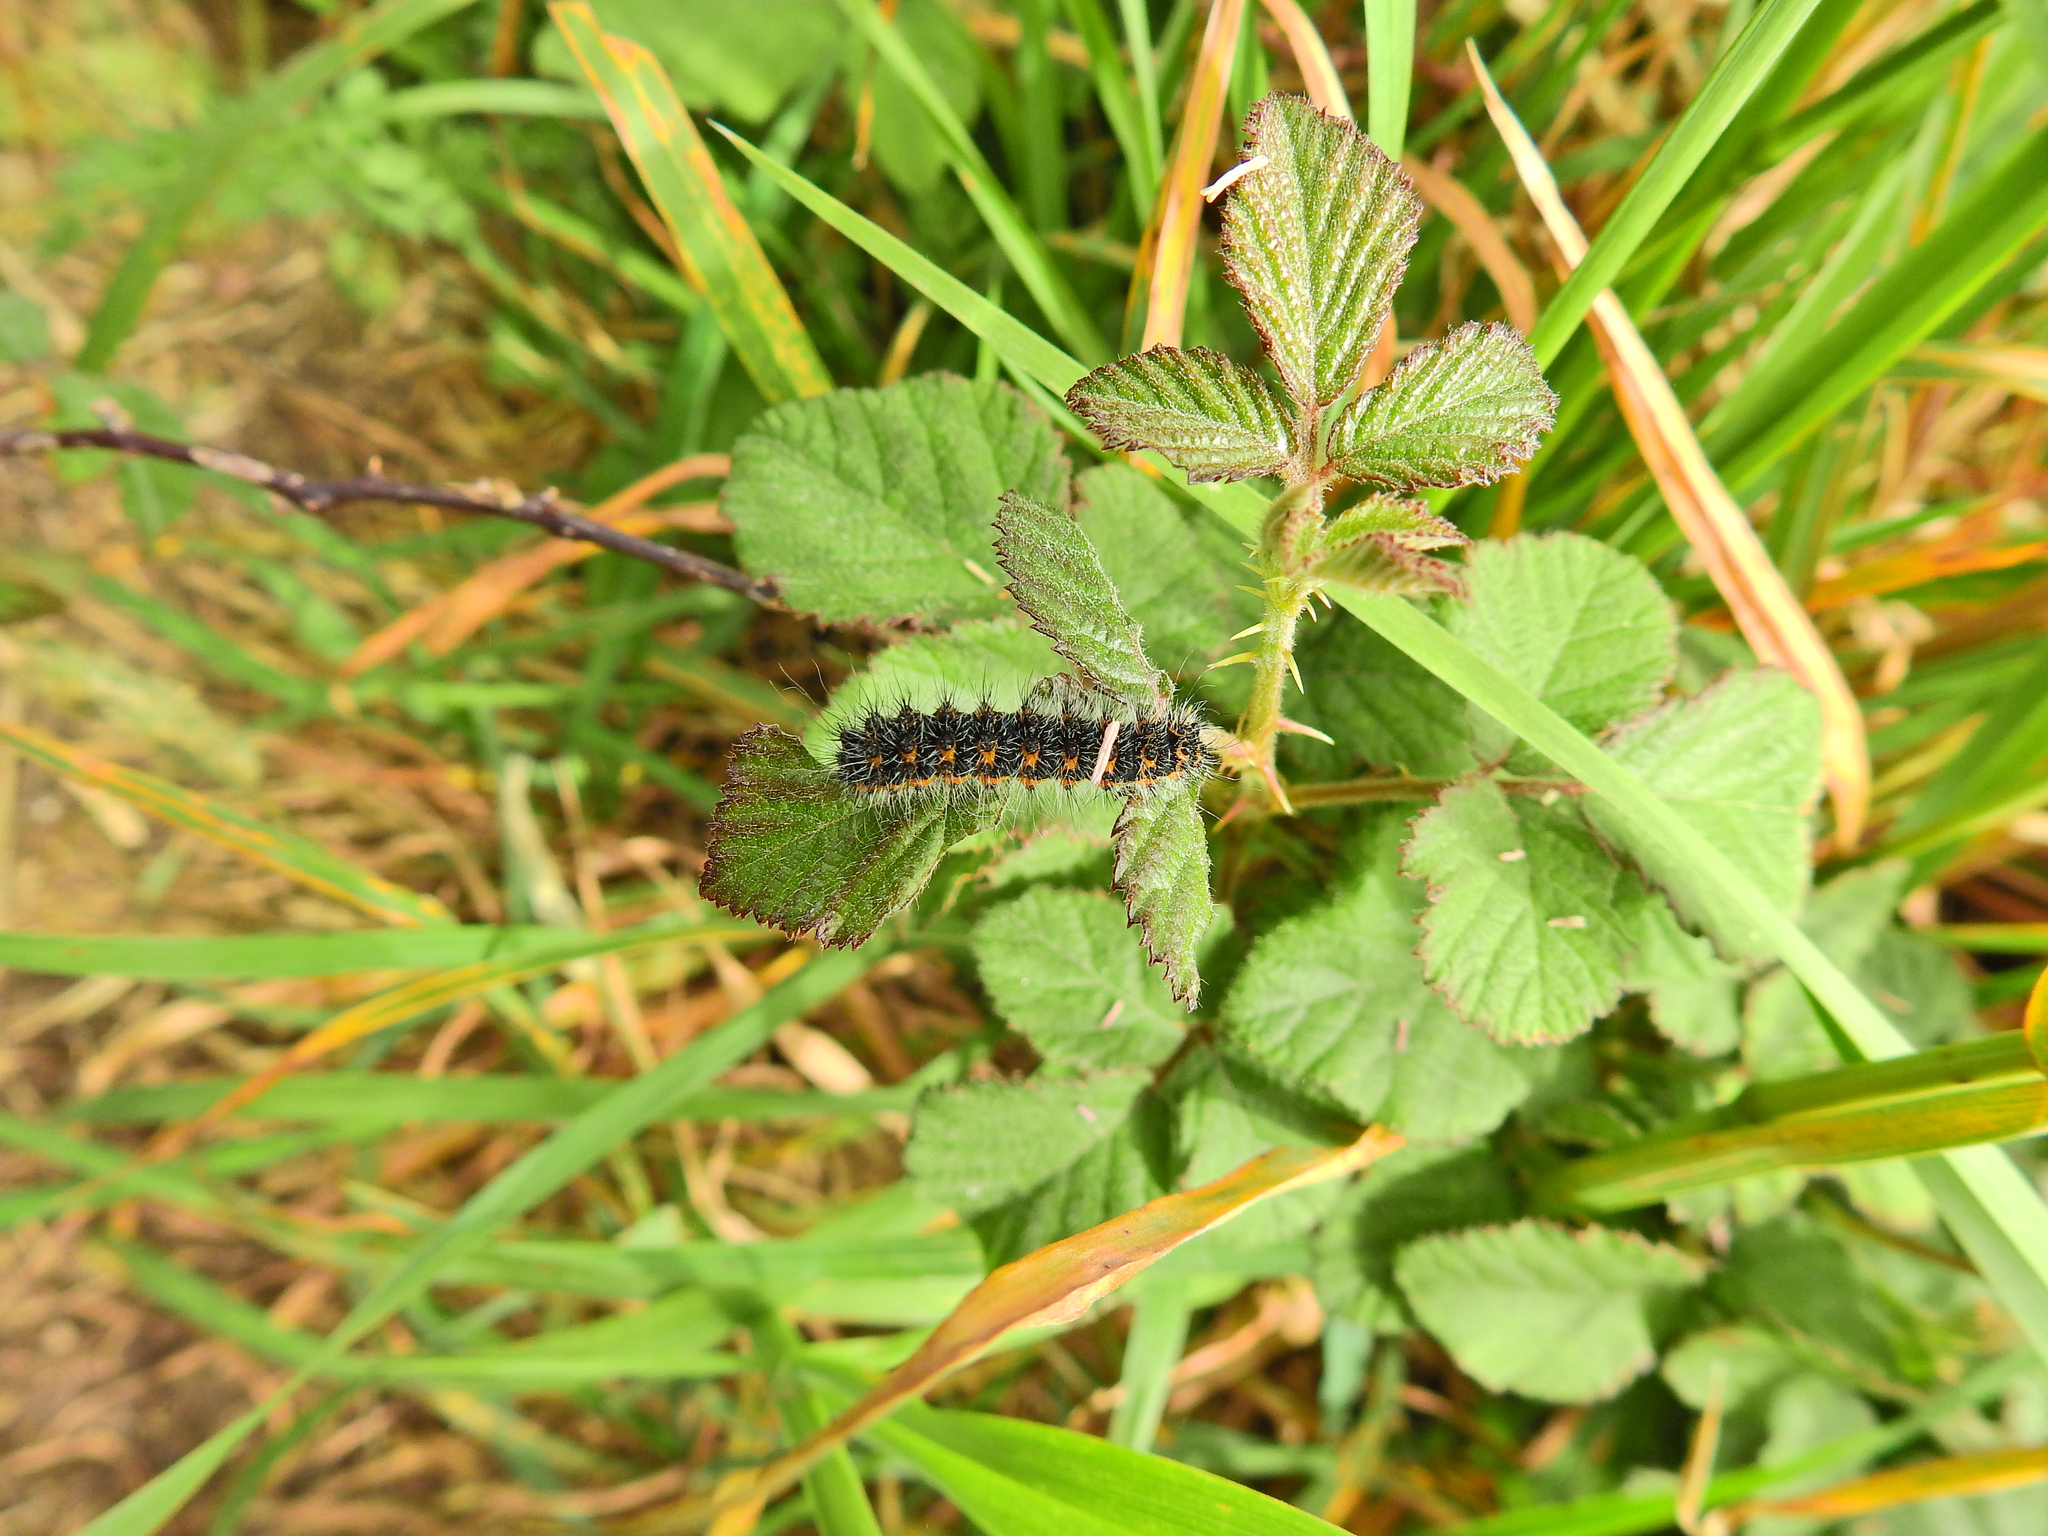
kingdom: Animalia
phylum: Arthropoda
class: Insecta
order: Lepidoptera
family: Saturniidae
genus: Saturnia
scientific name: Saturnia pavonia
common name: Emperor moth
